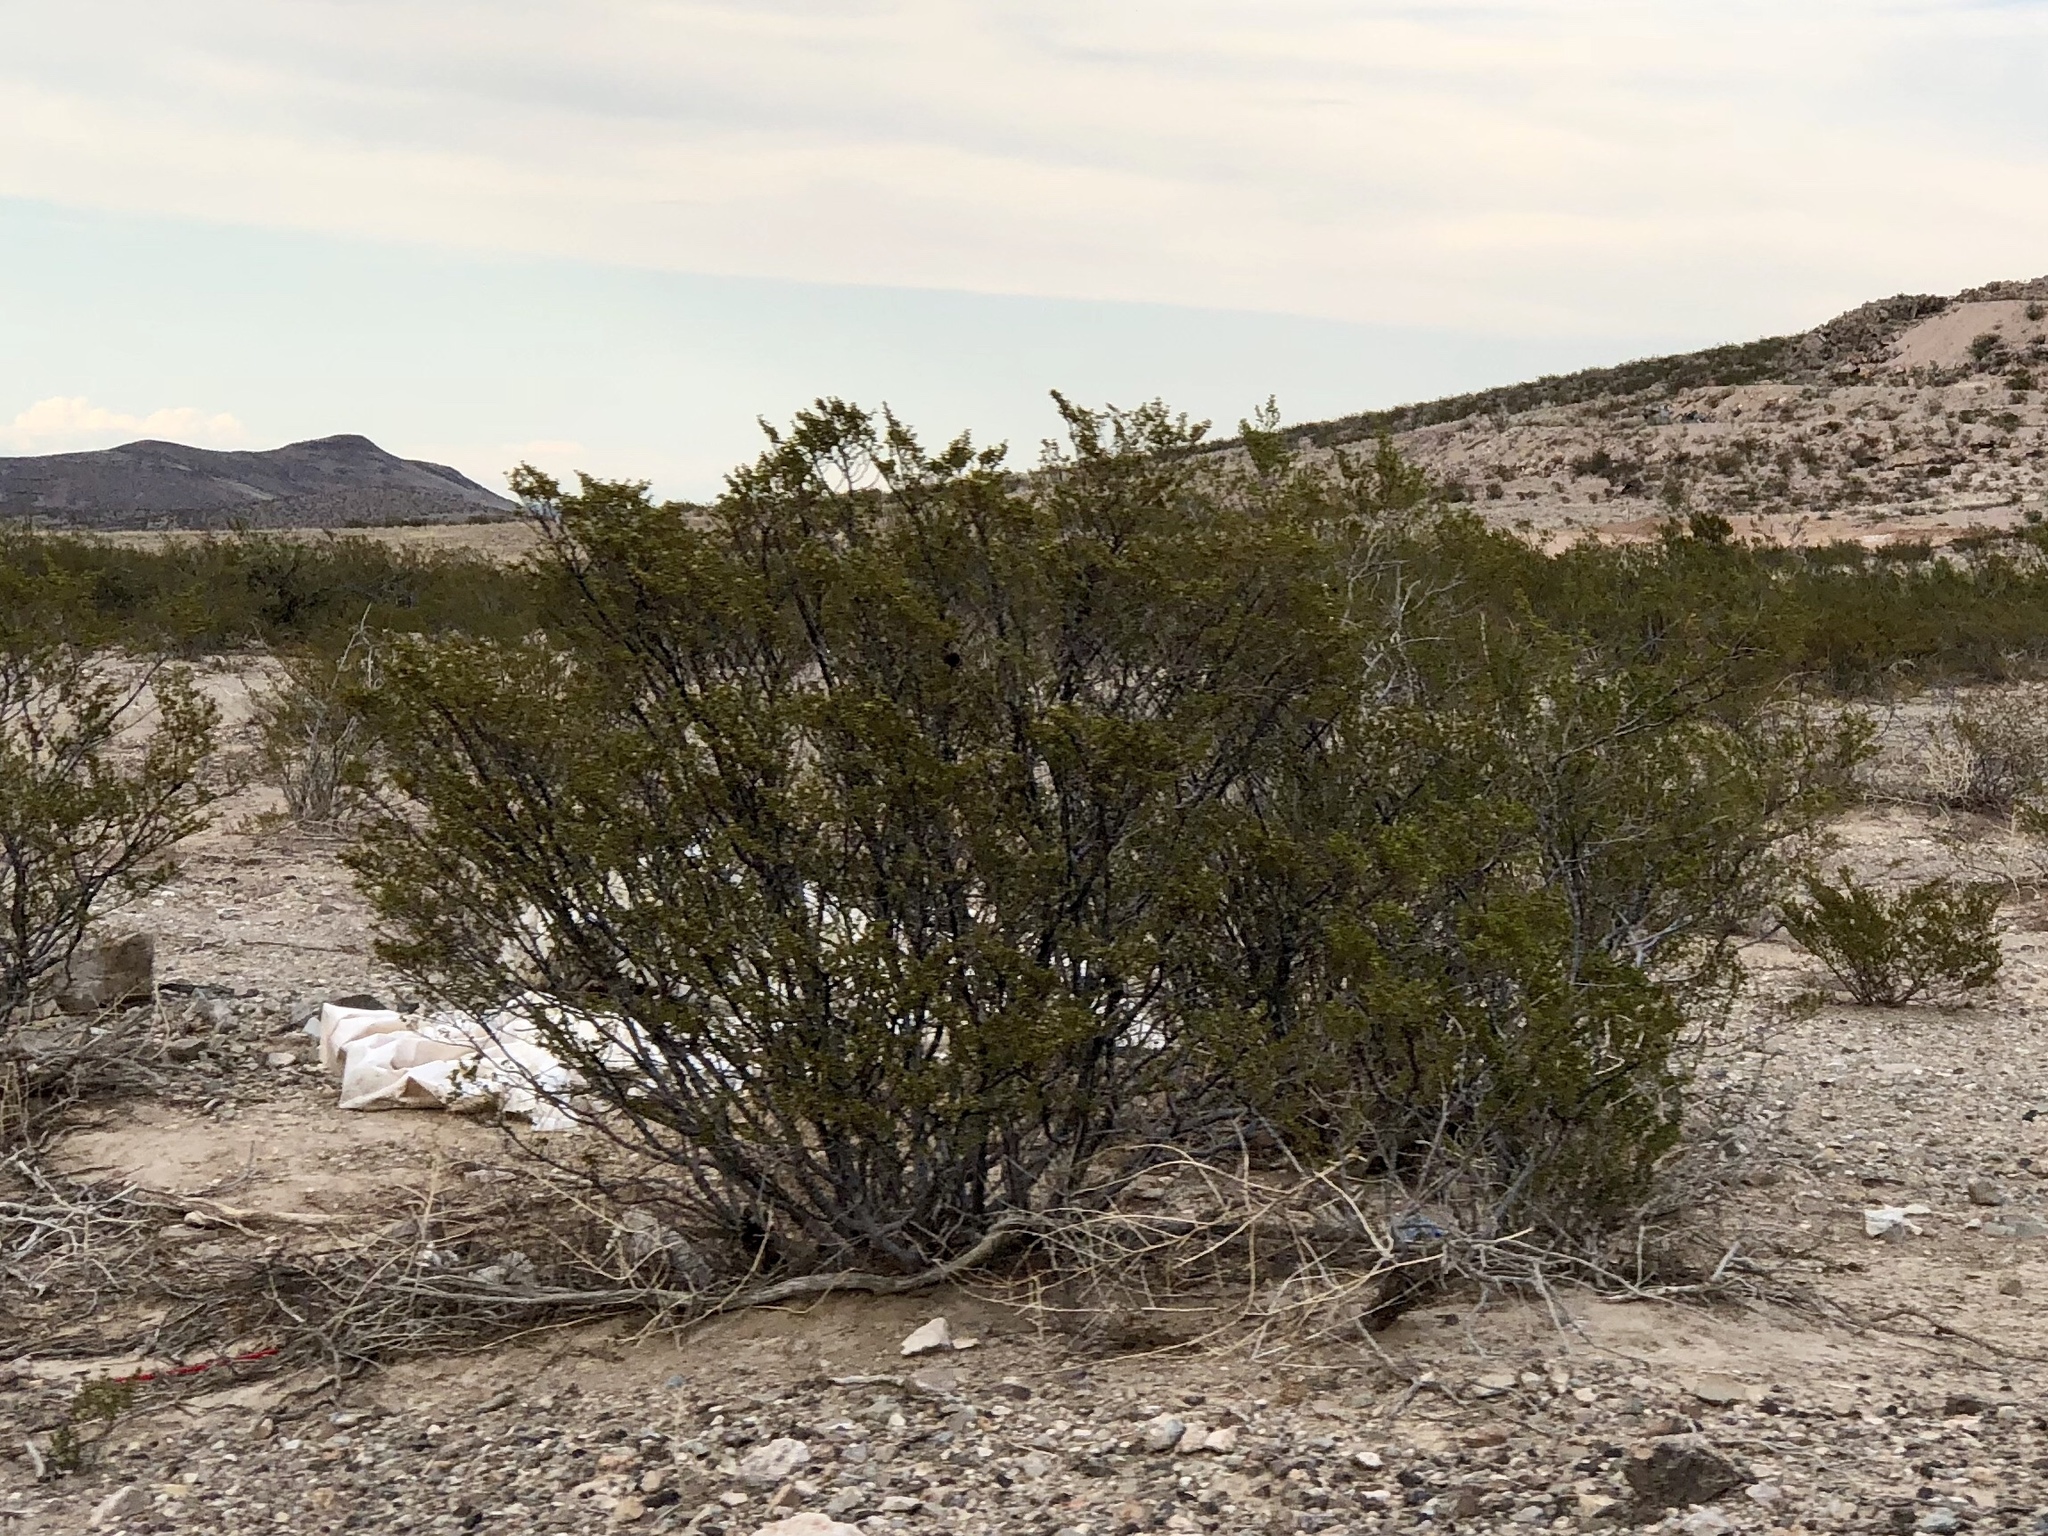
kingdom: Plantae
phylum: Tracheophyta
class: Magnoliopsida
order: Zygophyllales
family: Zygophyllaceae
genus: Larrea
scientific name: Larrea tridentata
